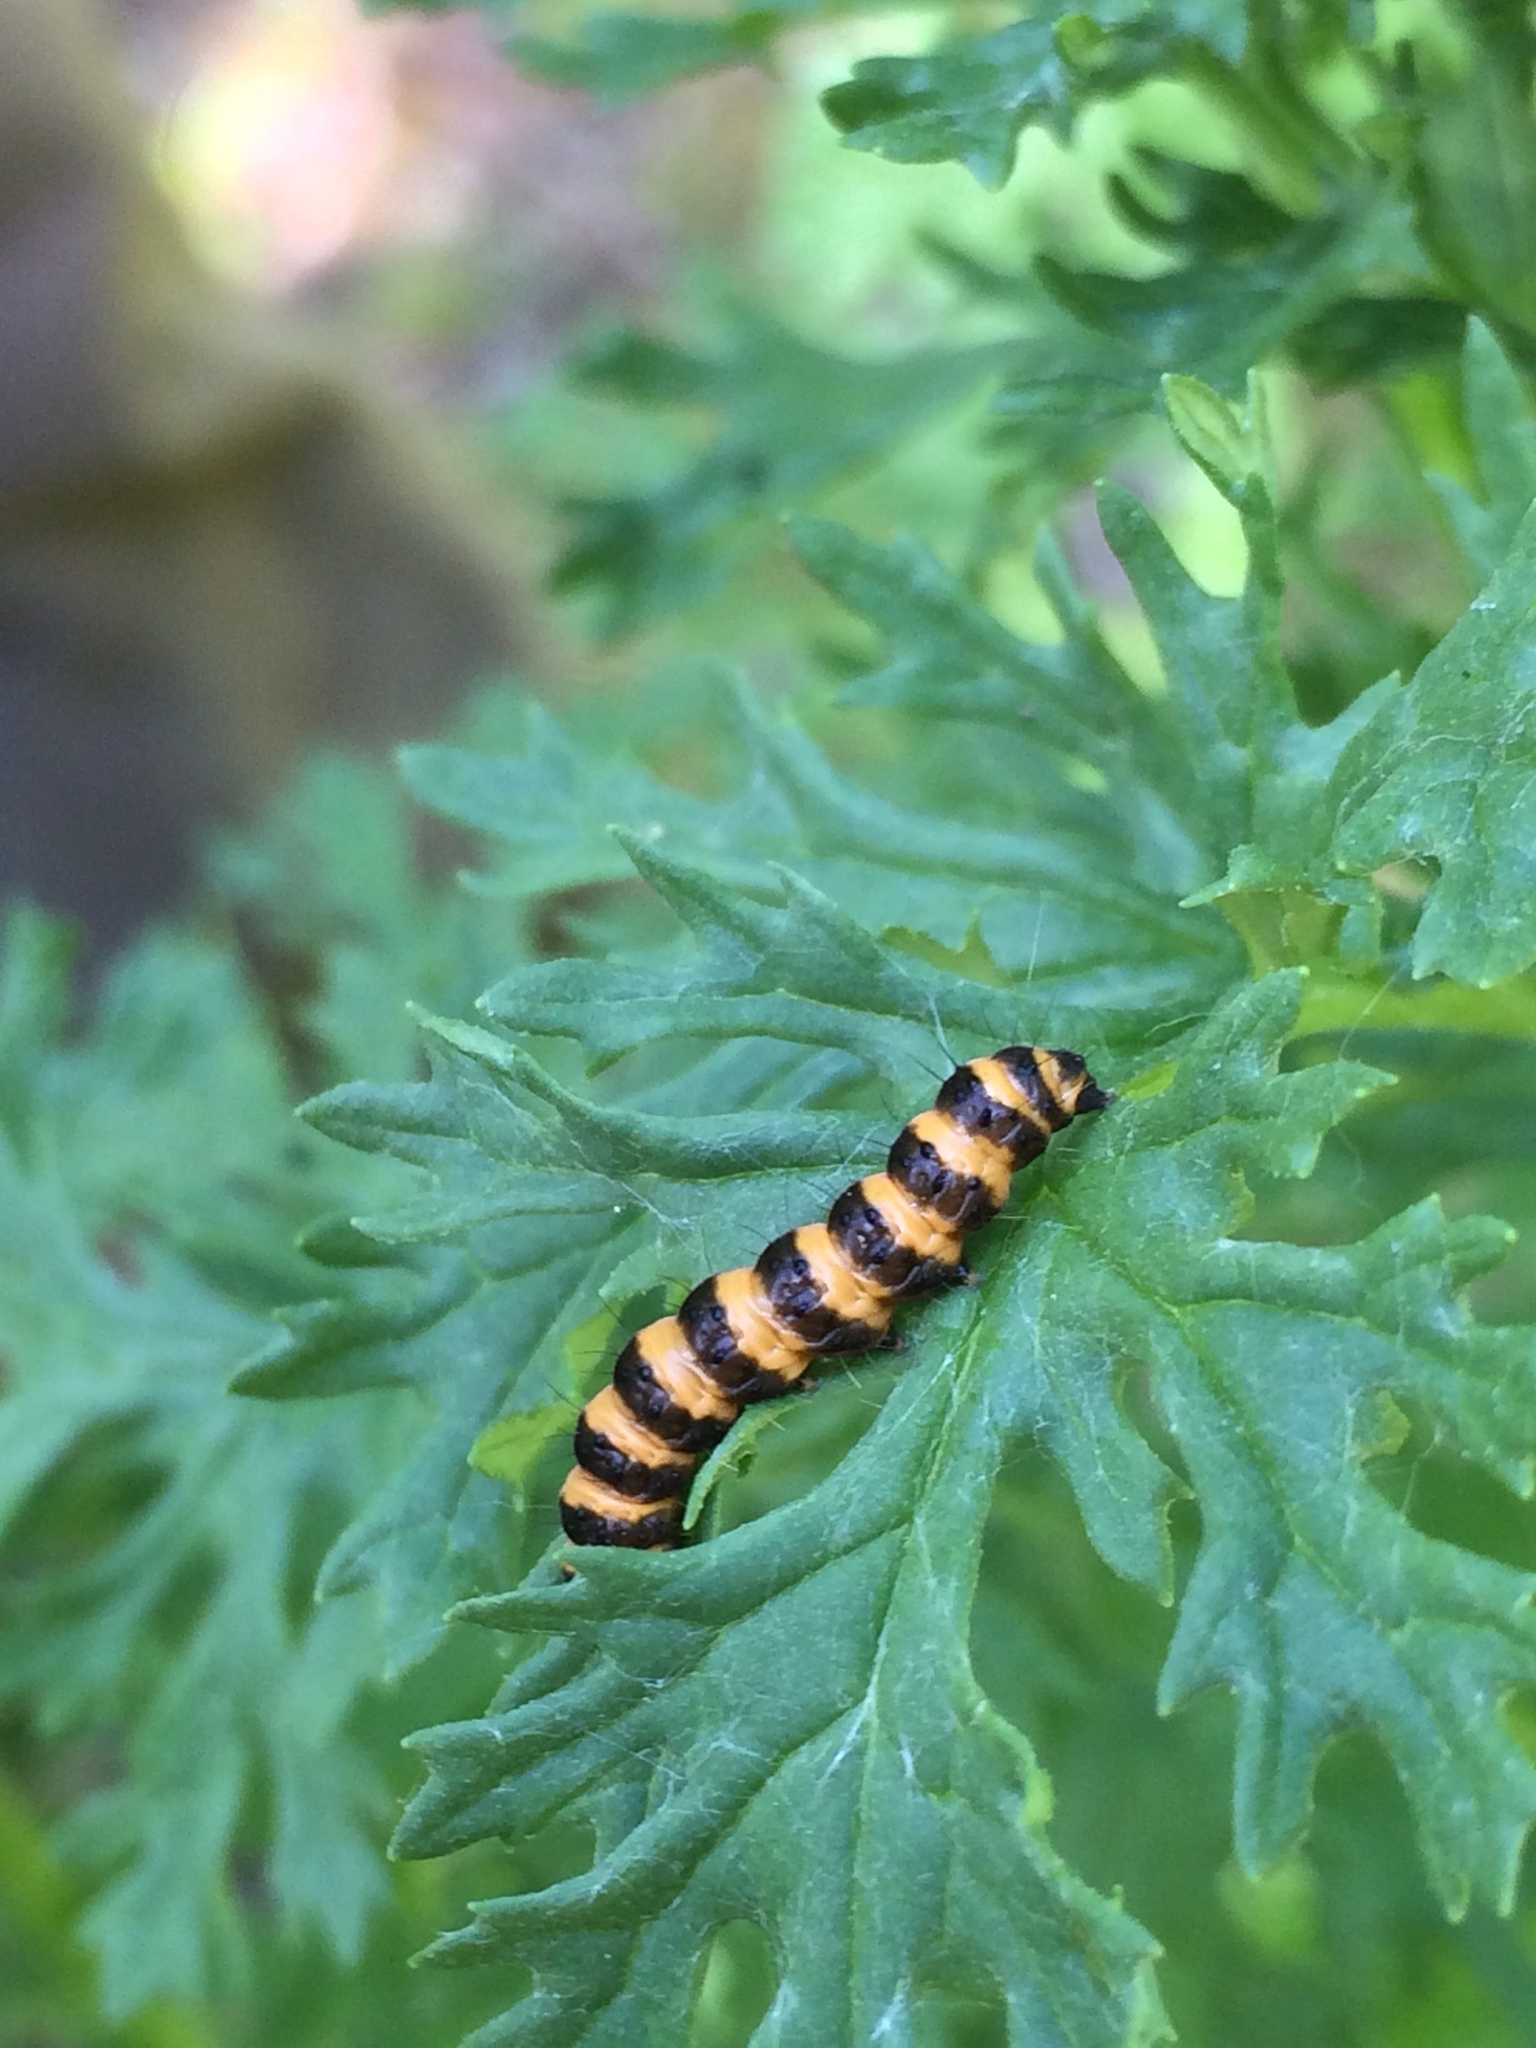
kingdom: Animalia
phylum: Arthropoda
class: Insecta
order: Lepidoptera
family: Erebidae
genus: Tyria
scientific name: Tyria jacobaeae
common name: Cinnabar
